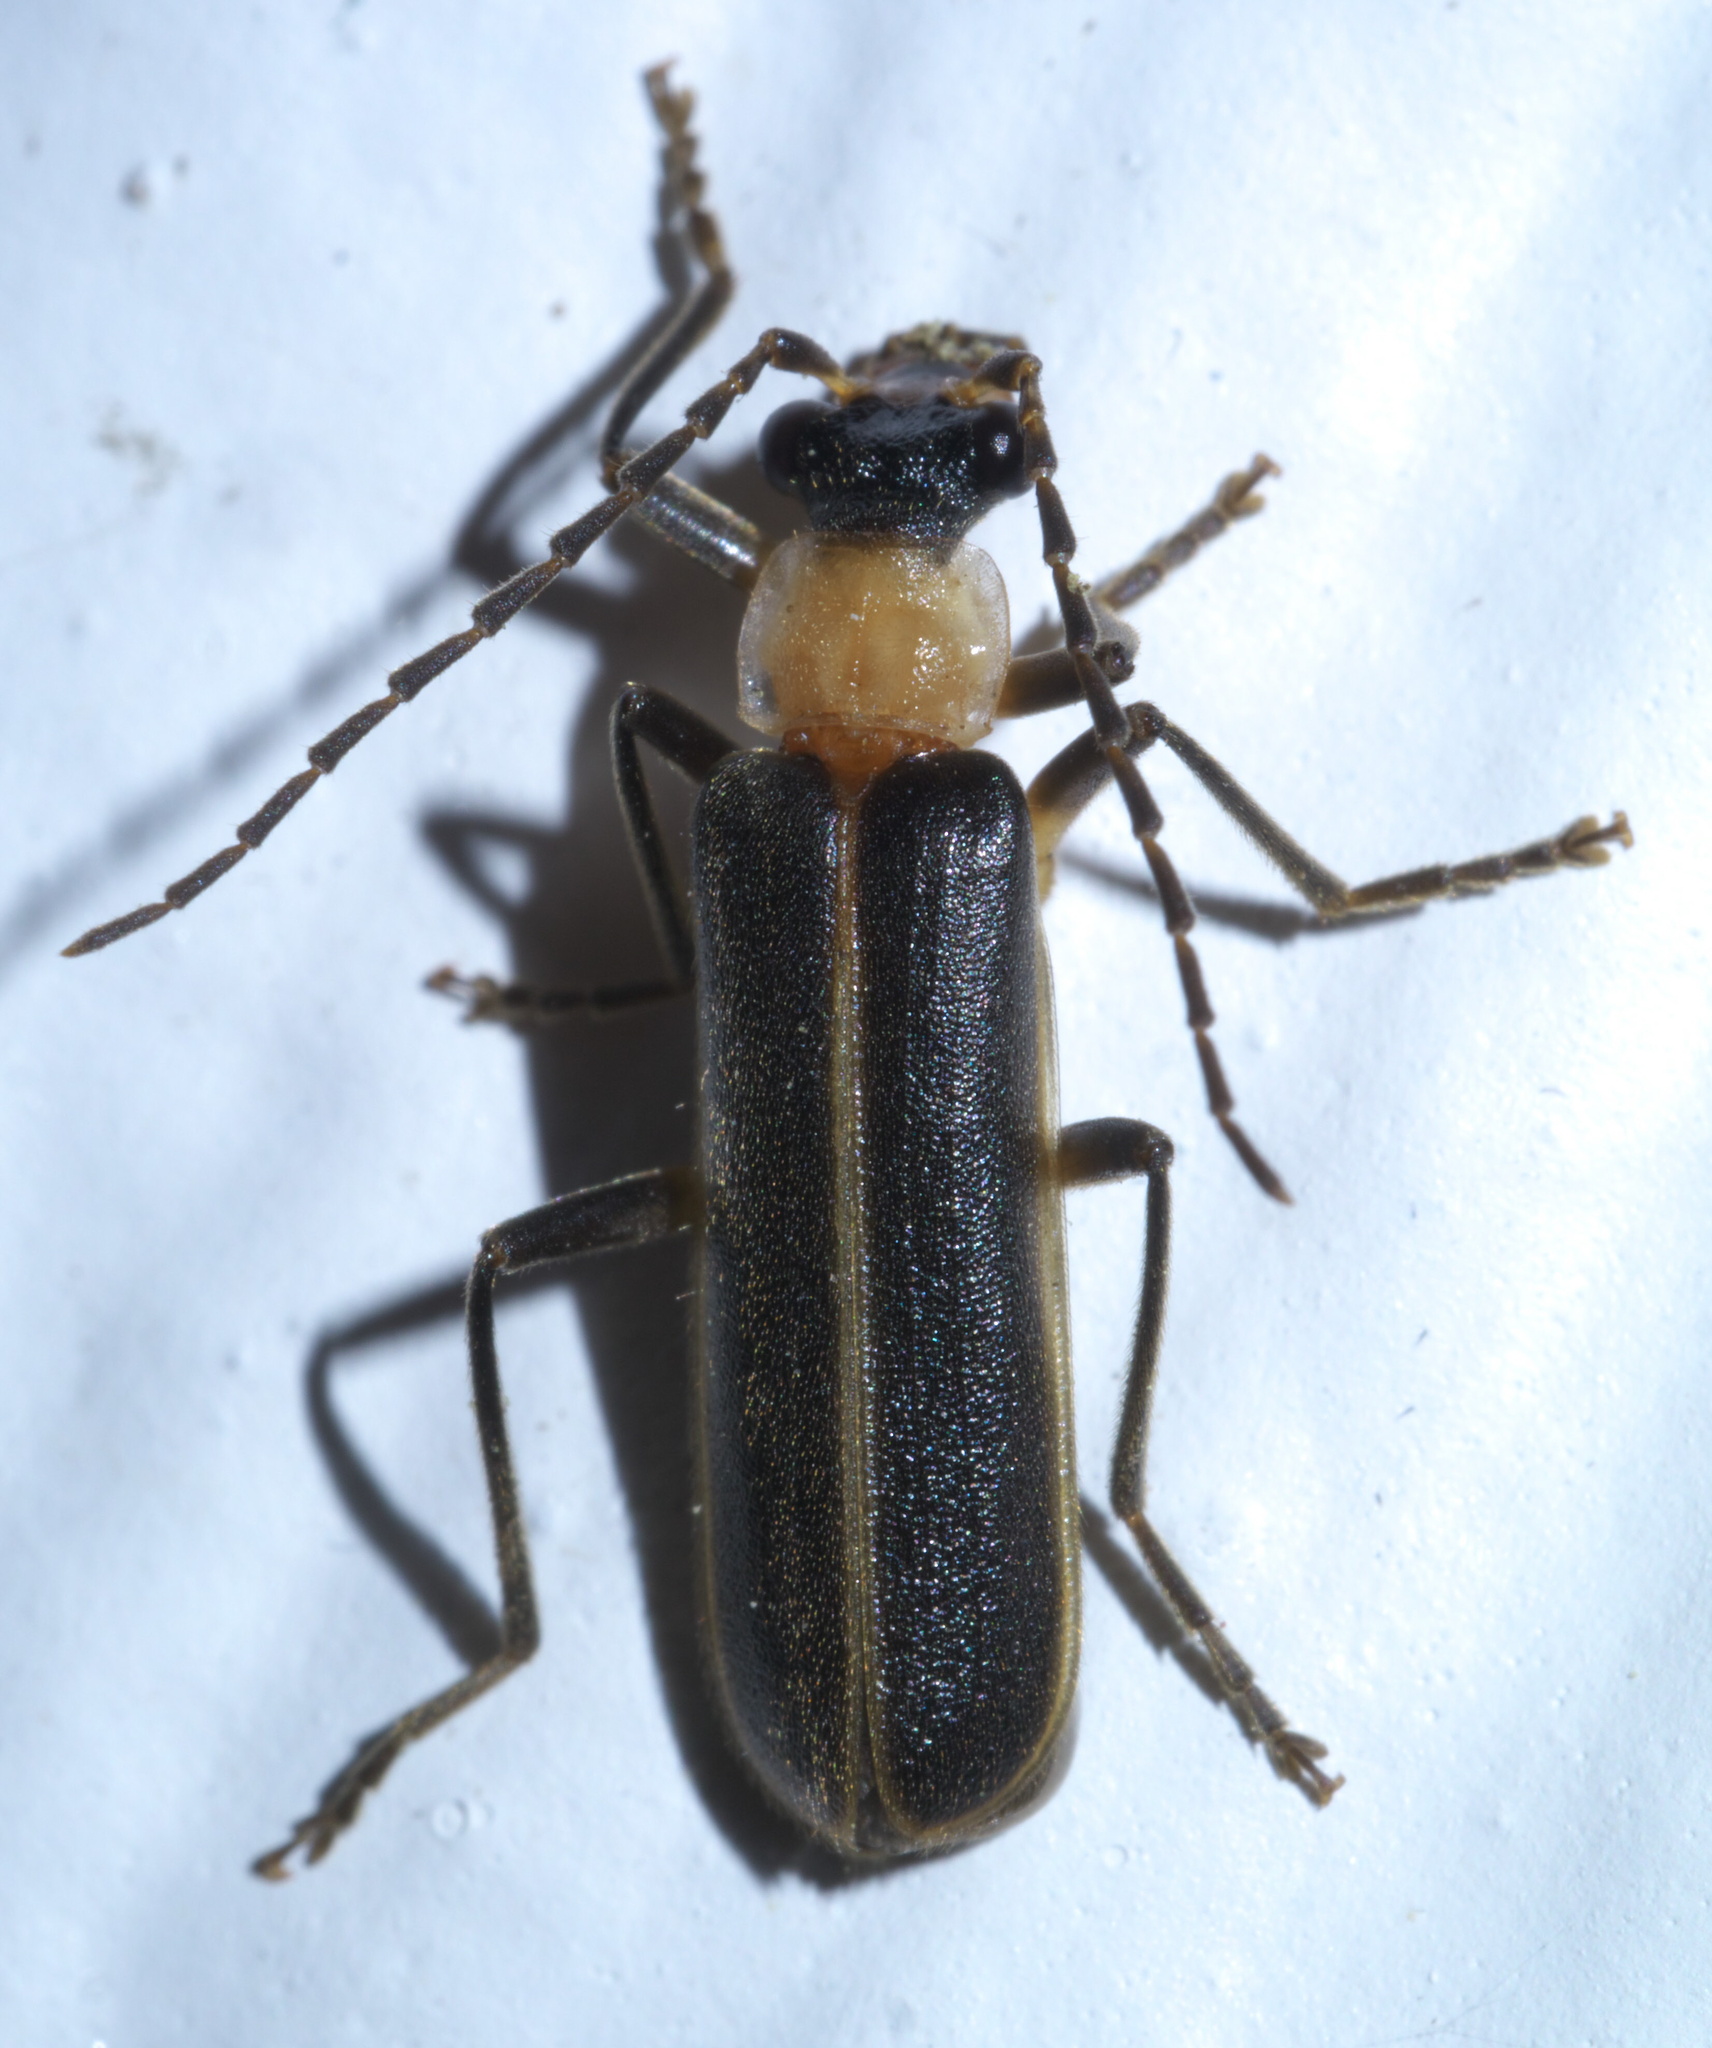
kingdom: Animalia
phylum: Arthropoda
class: Insecta
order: Coleoptera
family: Cantharidae
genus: Podabrus
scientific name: Podabrus flavicollis
